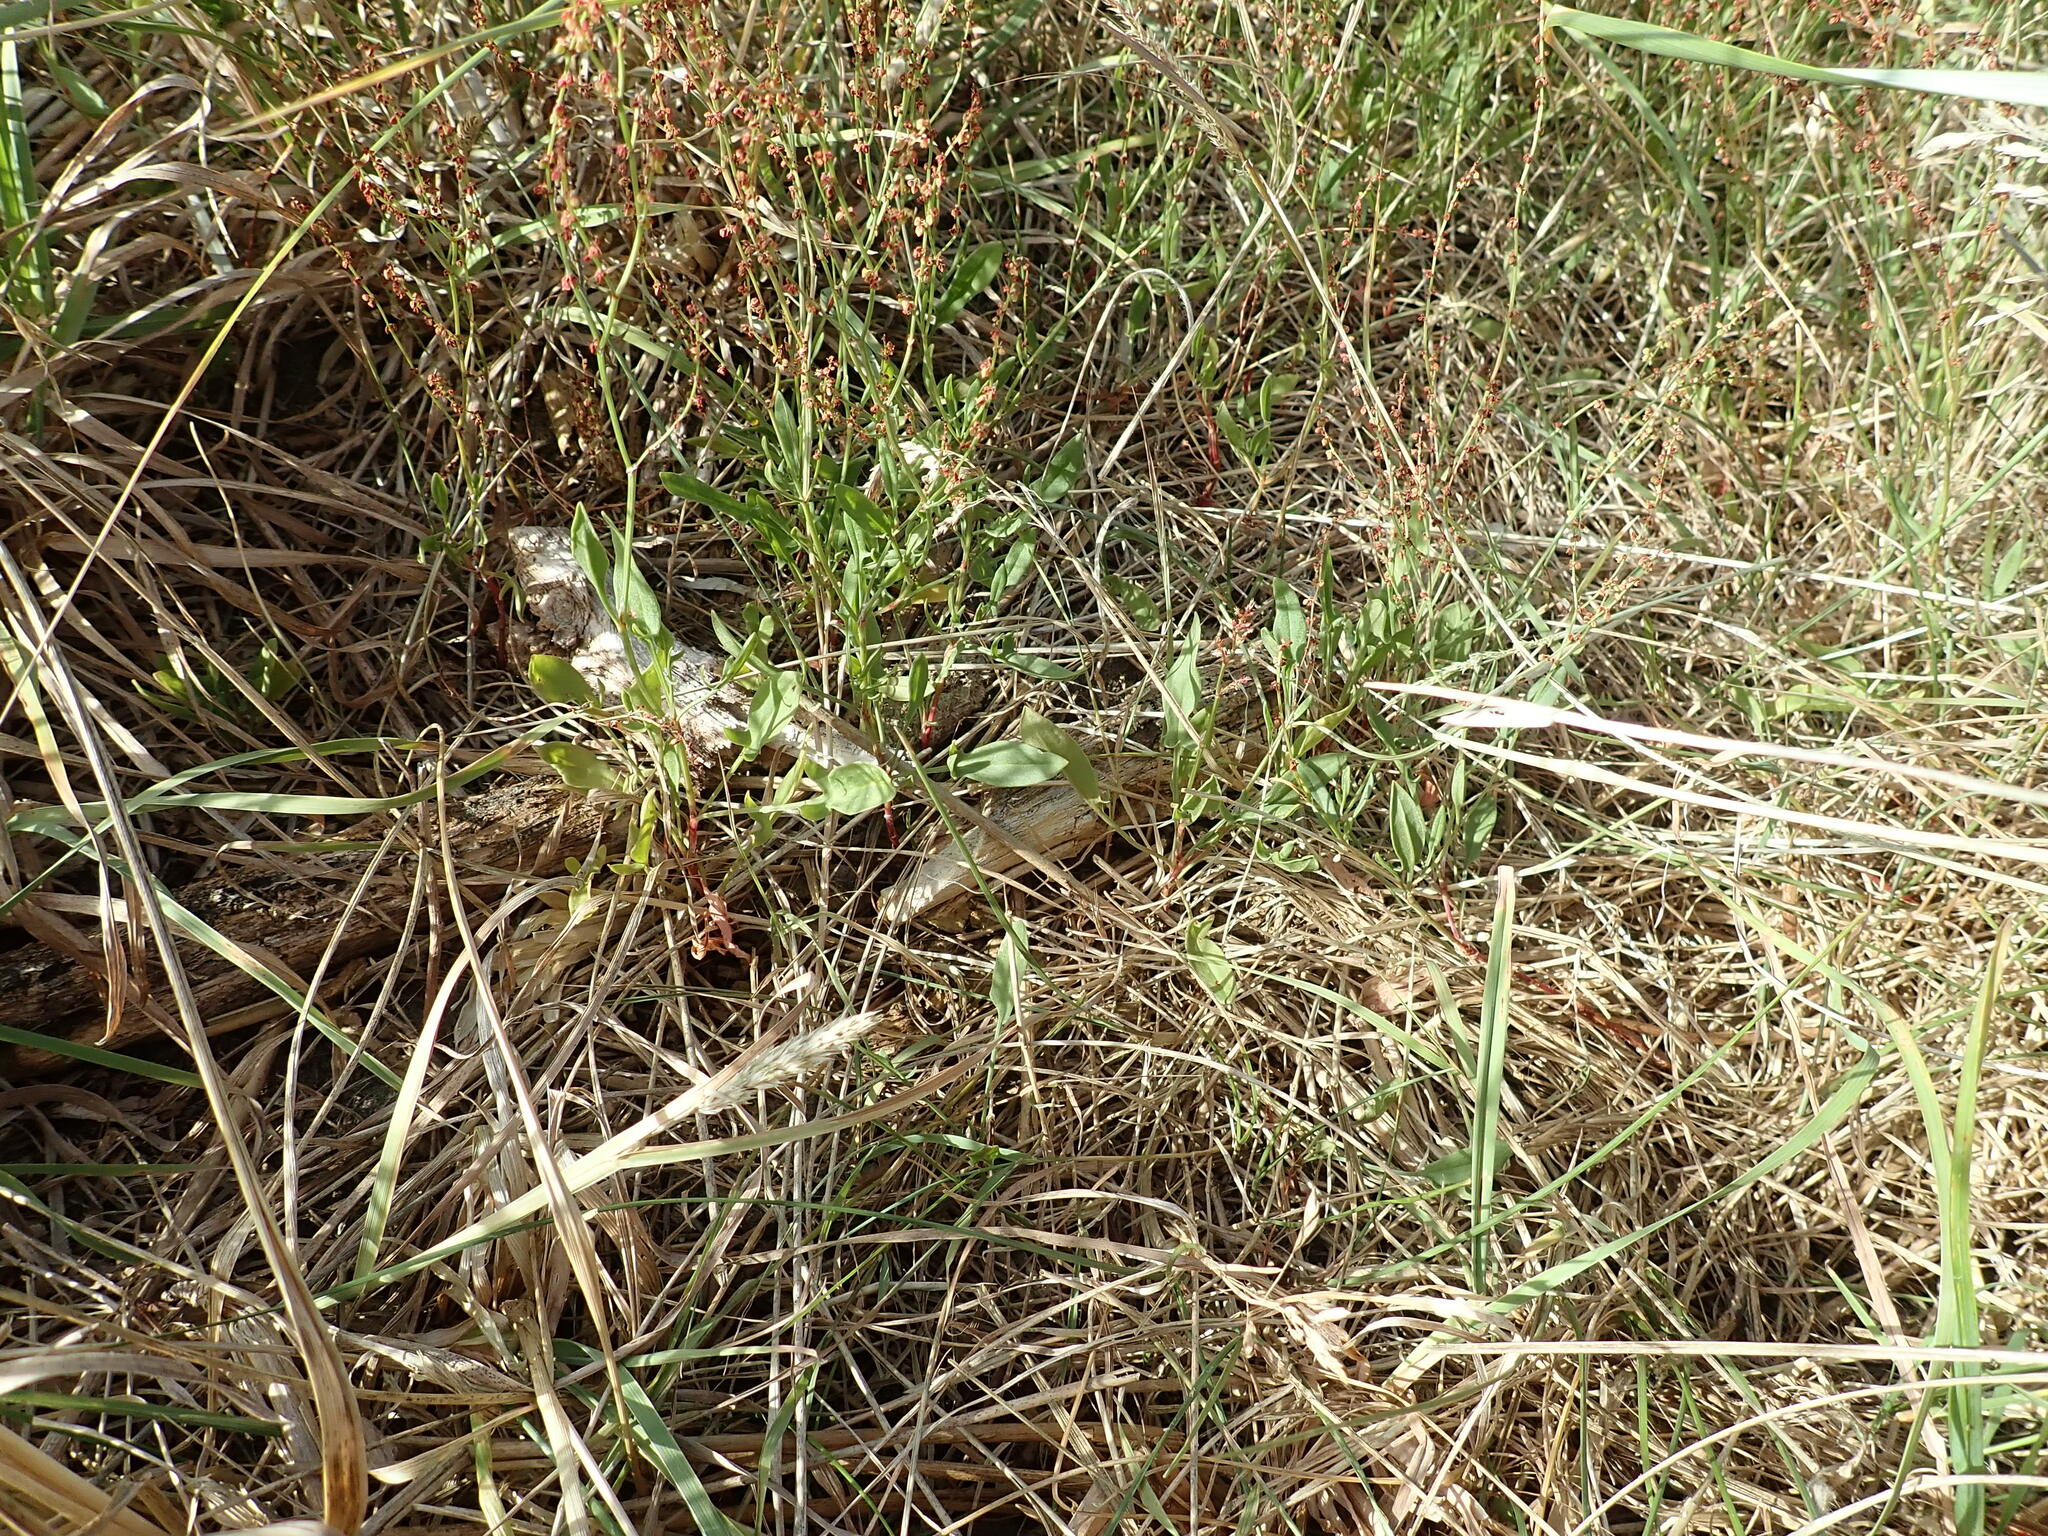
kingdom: Plantae
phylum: Tracheophyta
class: Magnoliopsida
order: Caryophyllales
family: Polygonaceae
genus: Rumex
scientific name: Rumex acetosella
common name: Common sheep sorrel
